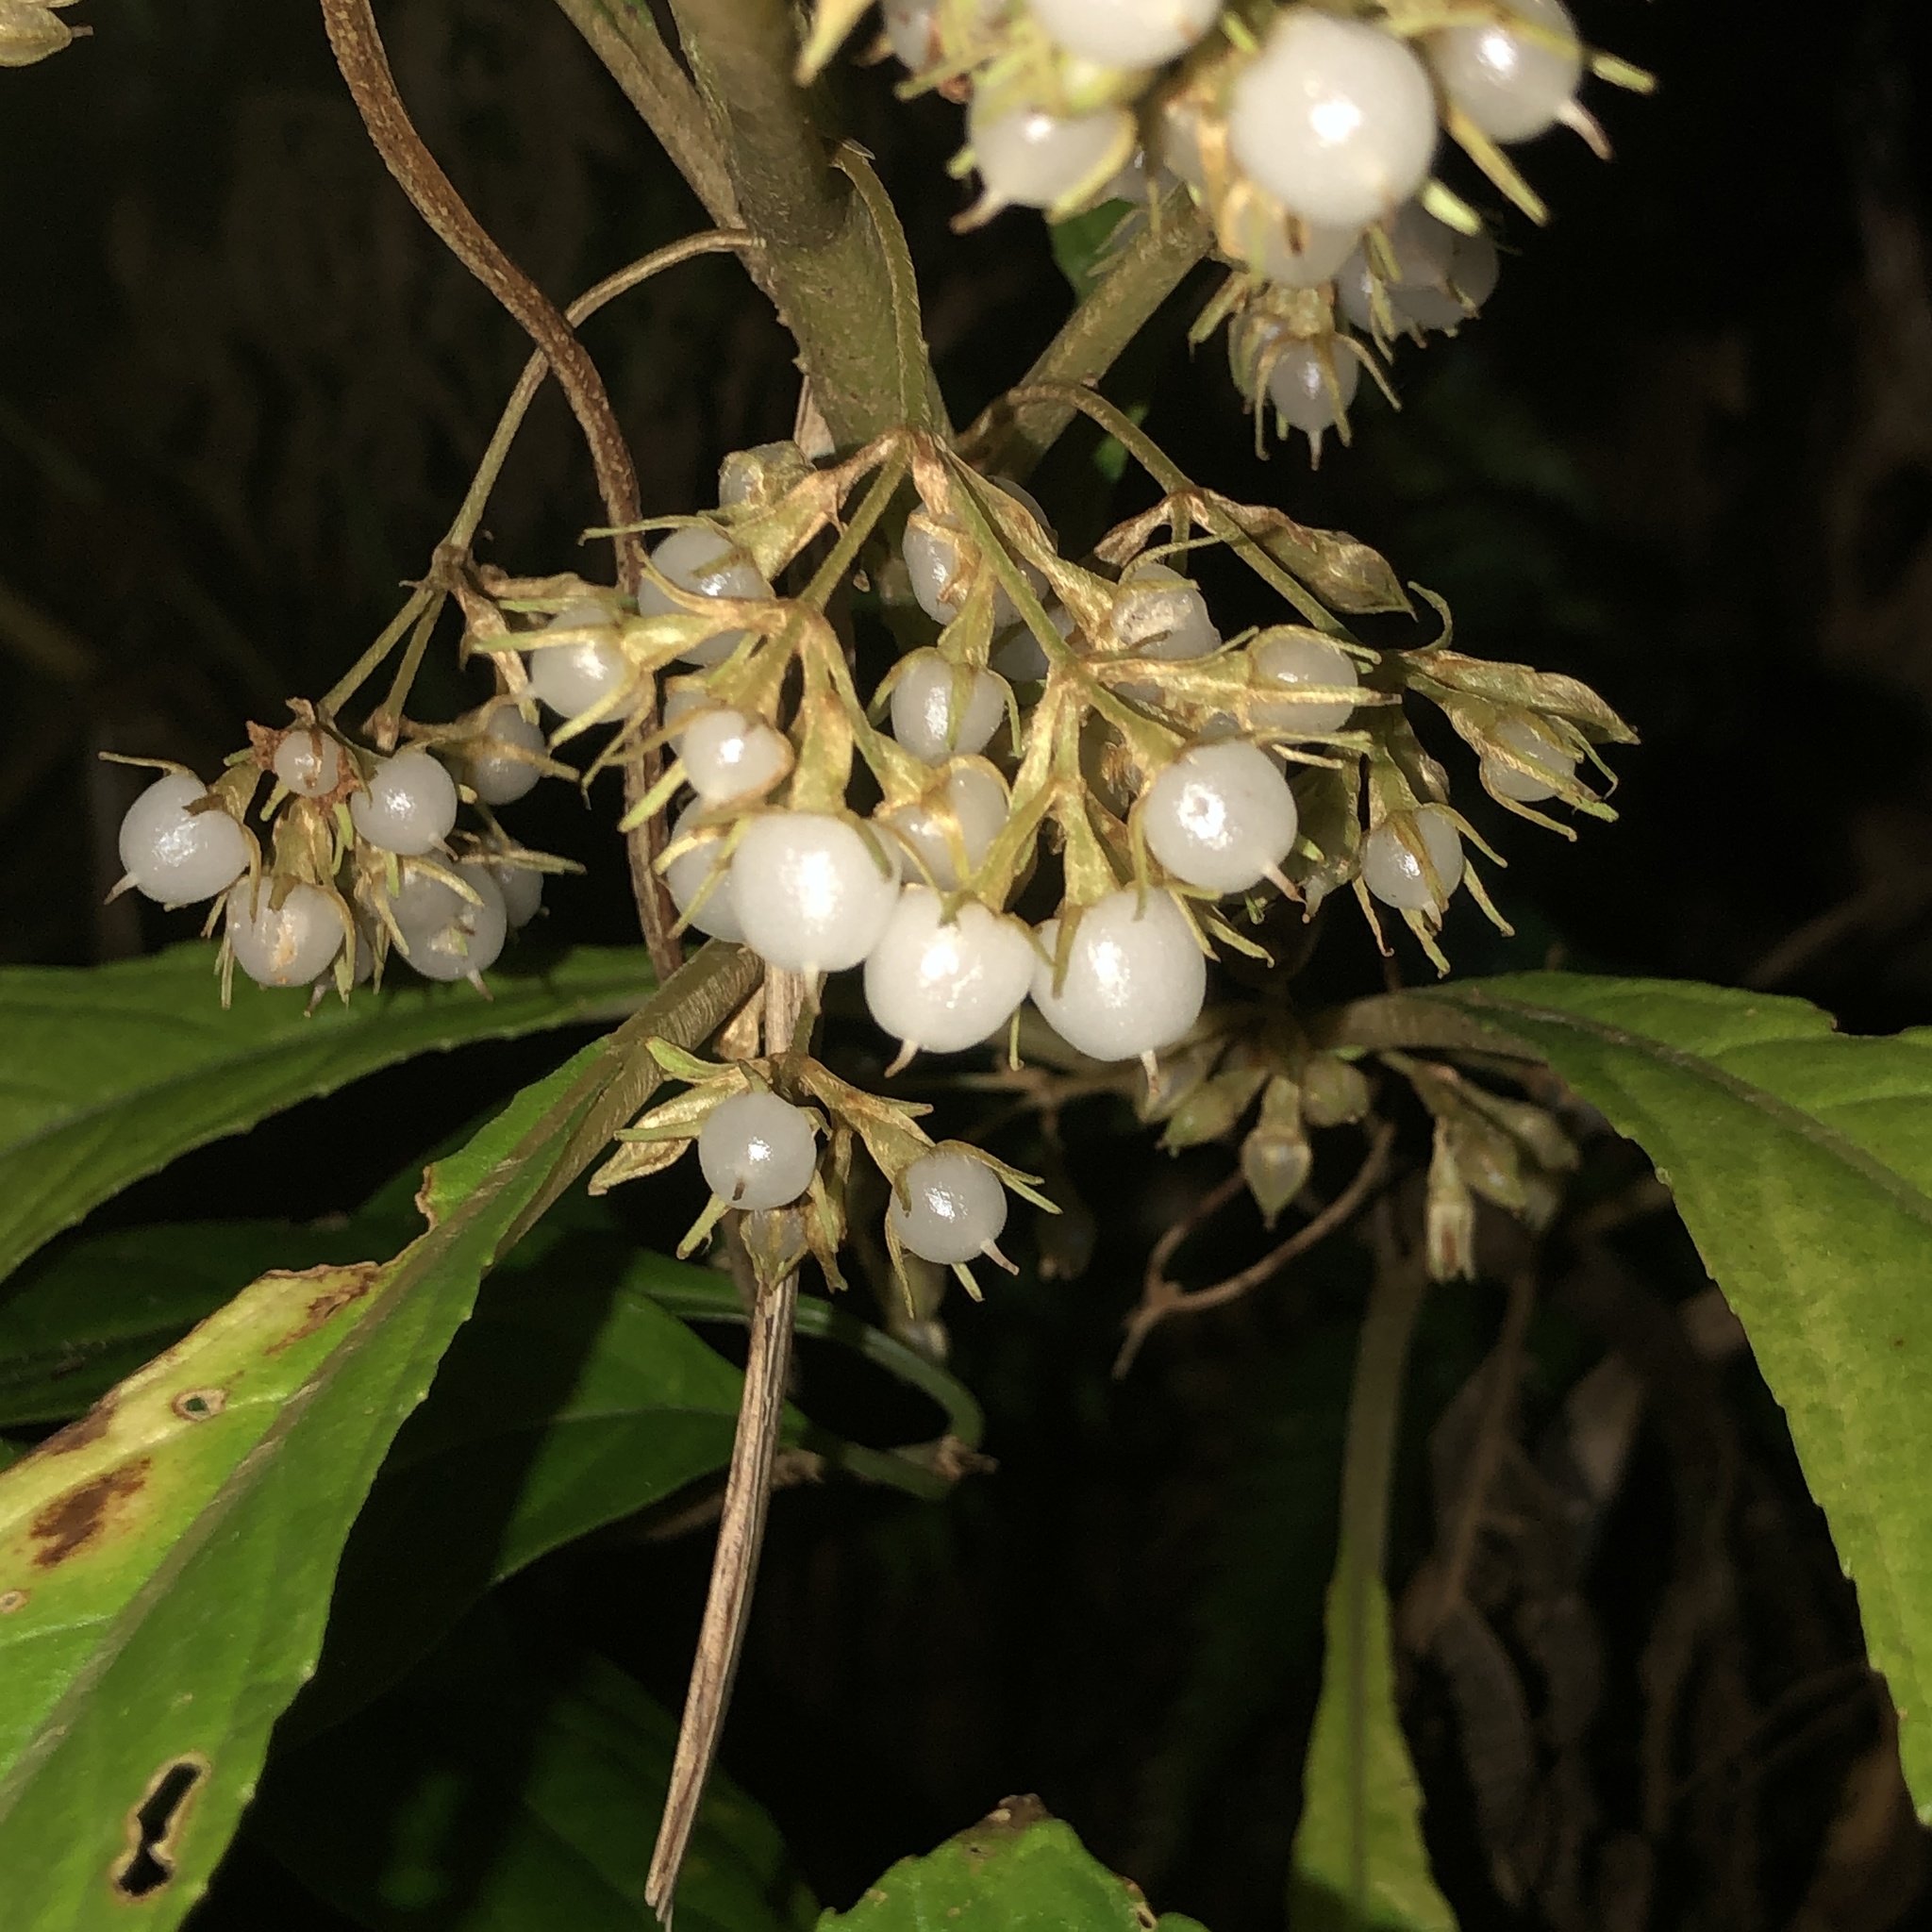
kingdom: Plantae
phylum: Tracheophyta
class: Magnoliopsida
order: Lamiales
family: Gesneriaceae
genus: Rhynchotechum
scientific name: Rhynchotechum discolor
